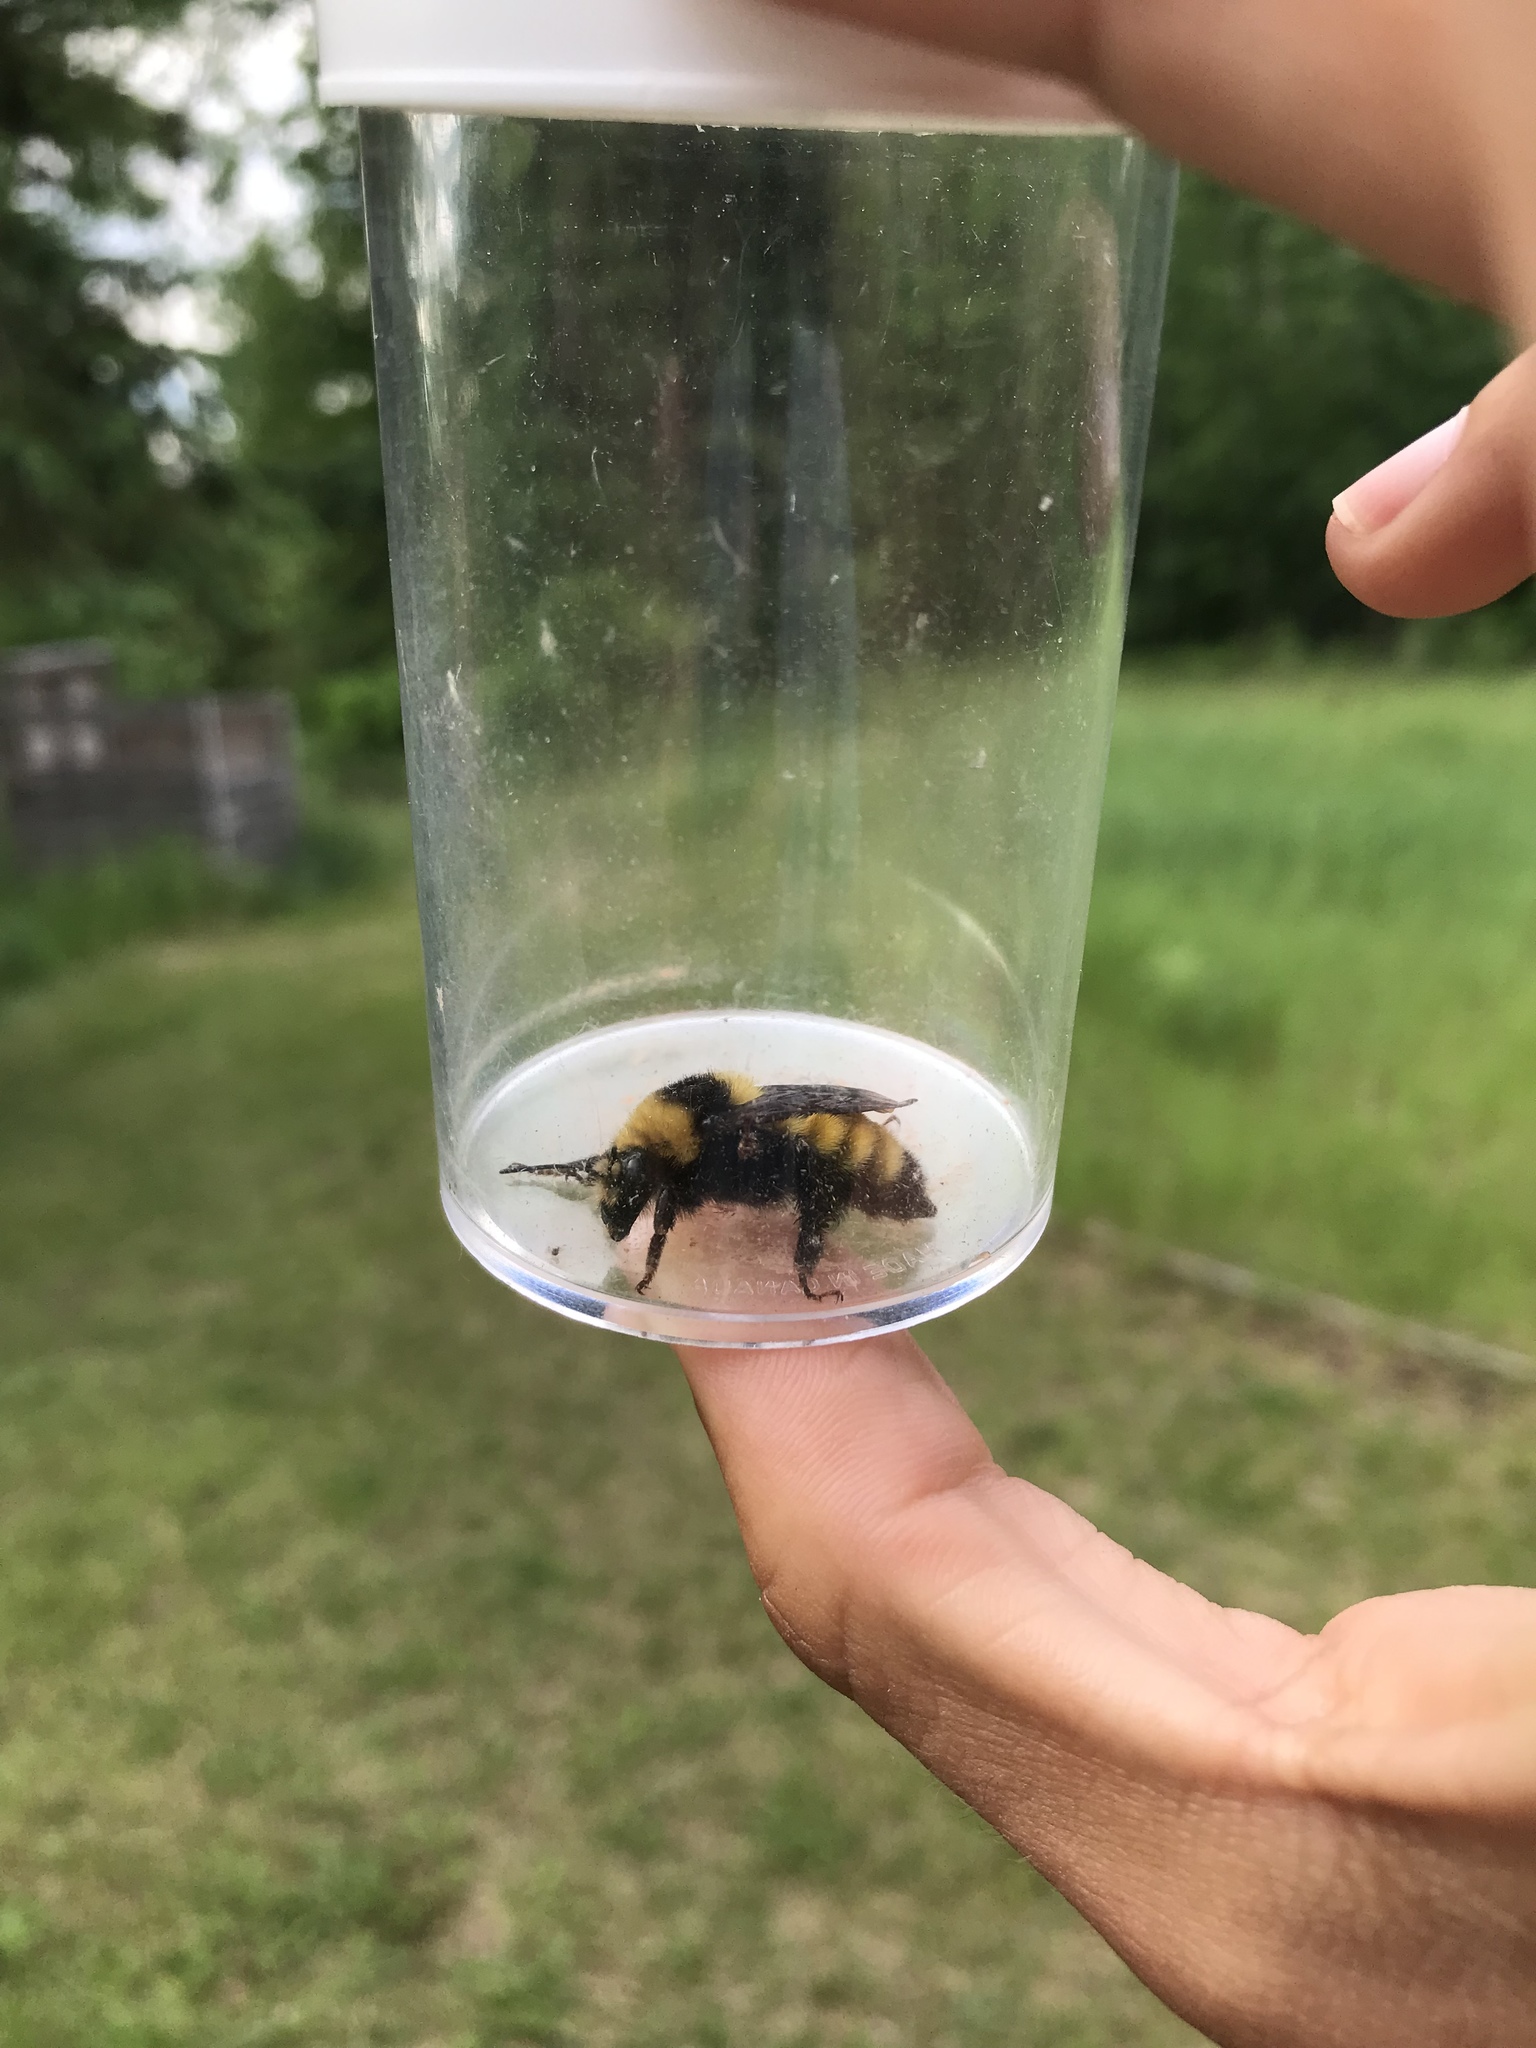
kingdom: Animalia
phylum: Arthropoda
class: Insecta
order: Hymenoptera
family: Apidae
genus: Bombus
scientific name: Bombus borealis
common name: Northern amber bumble bee
